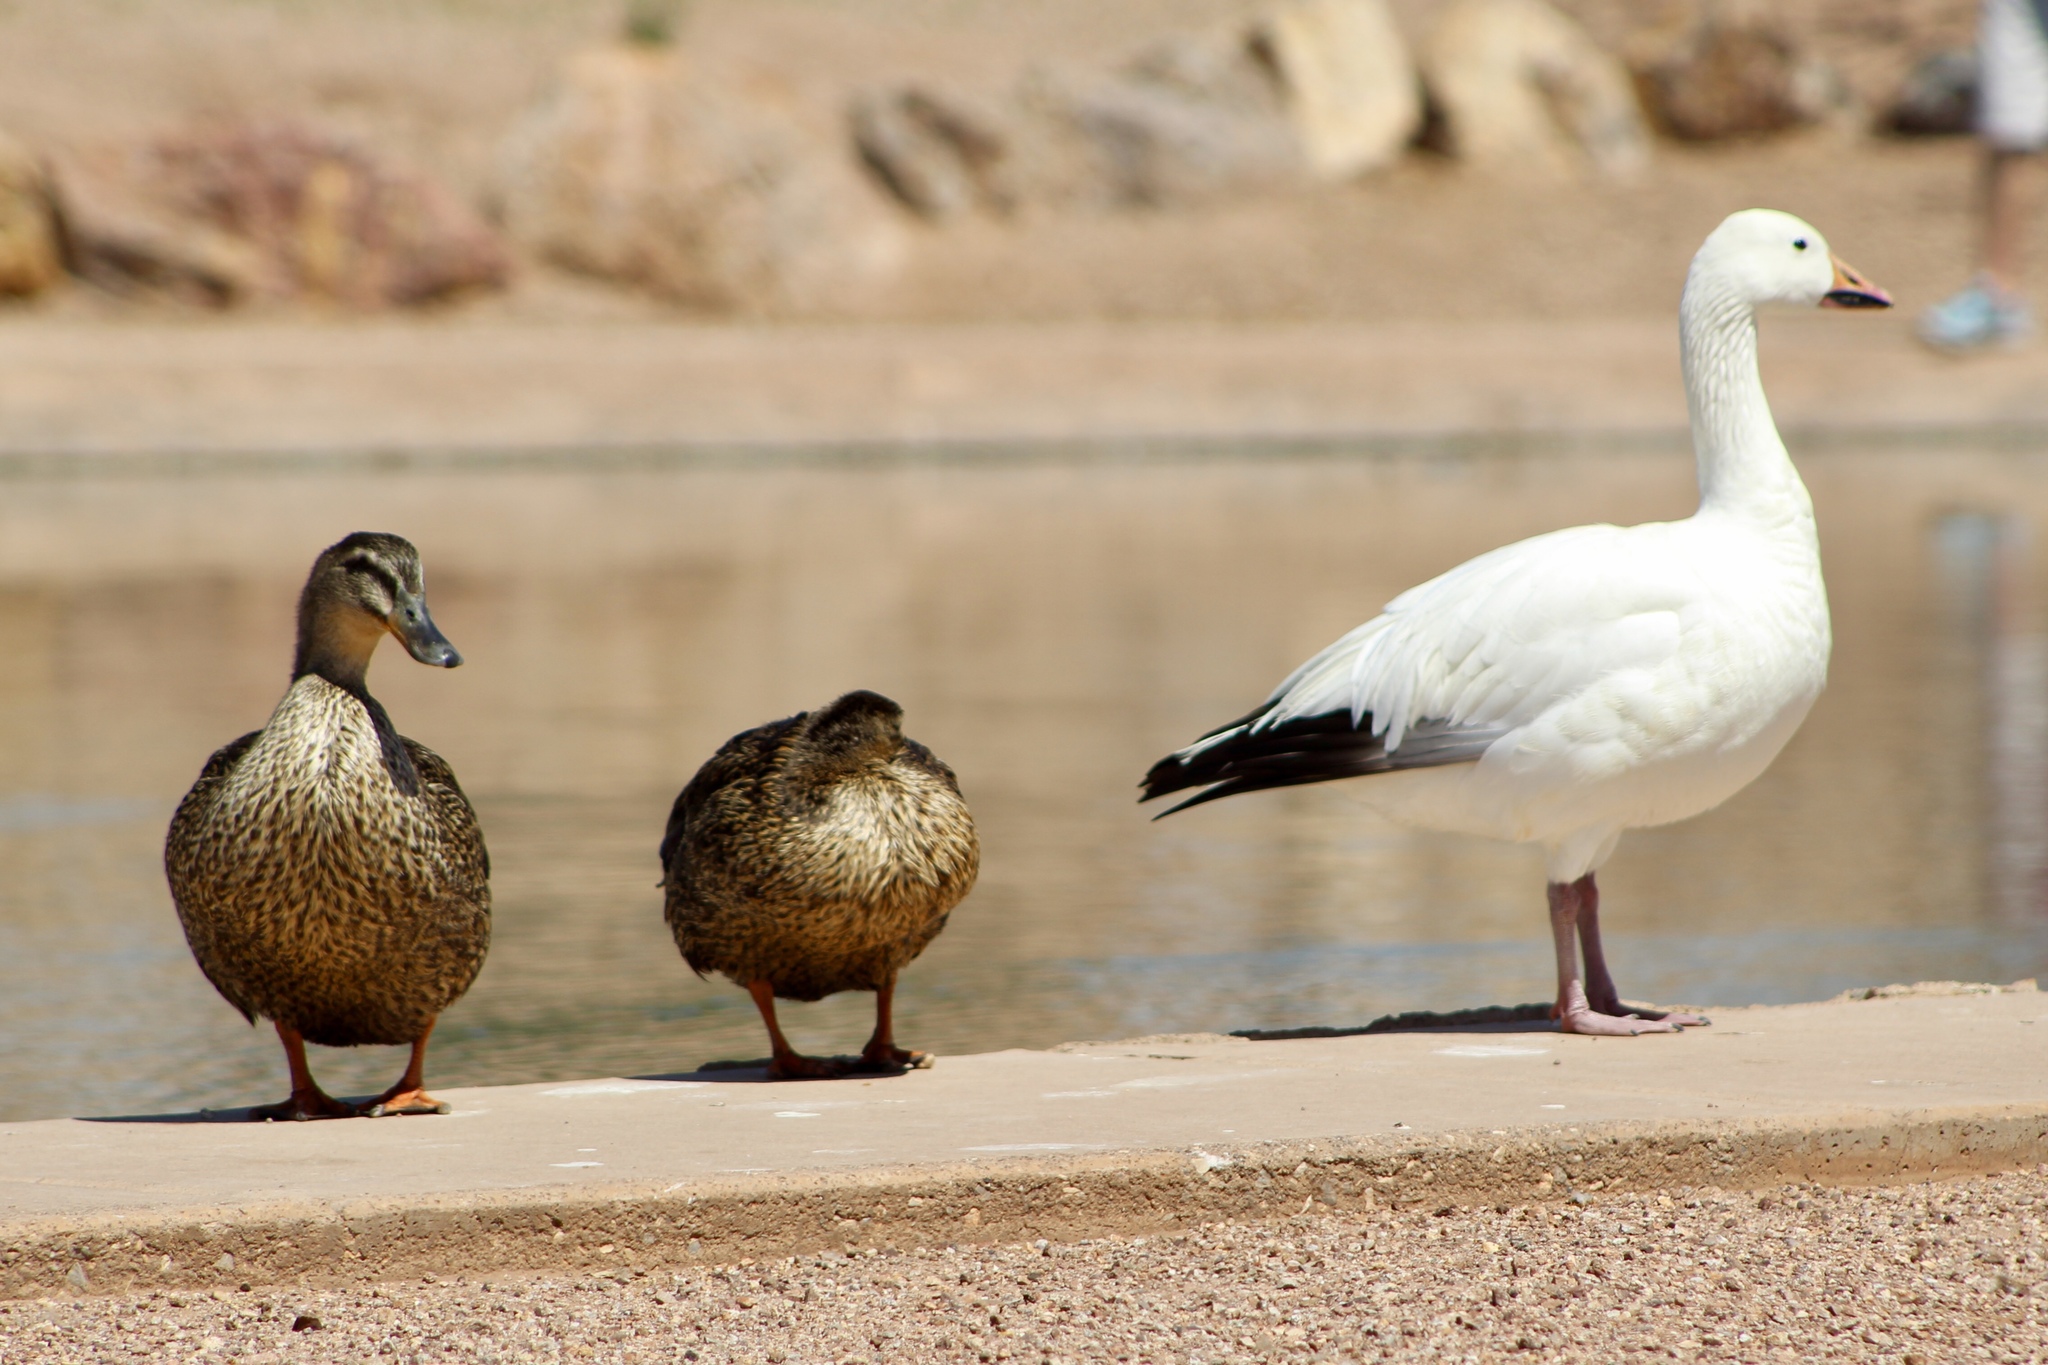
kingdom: Animalia
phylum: Chordata
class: Aves
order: Anseriformes
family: Anatidae
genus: Anser
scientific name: Anser caerulescens
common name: Snow goose
